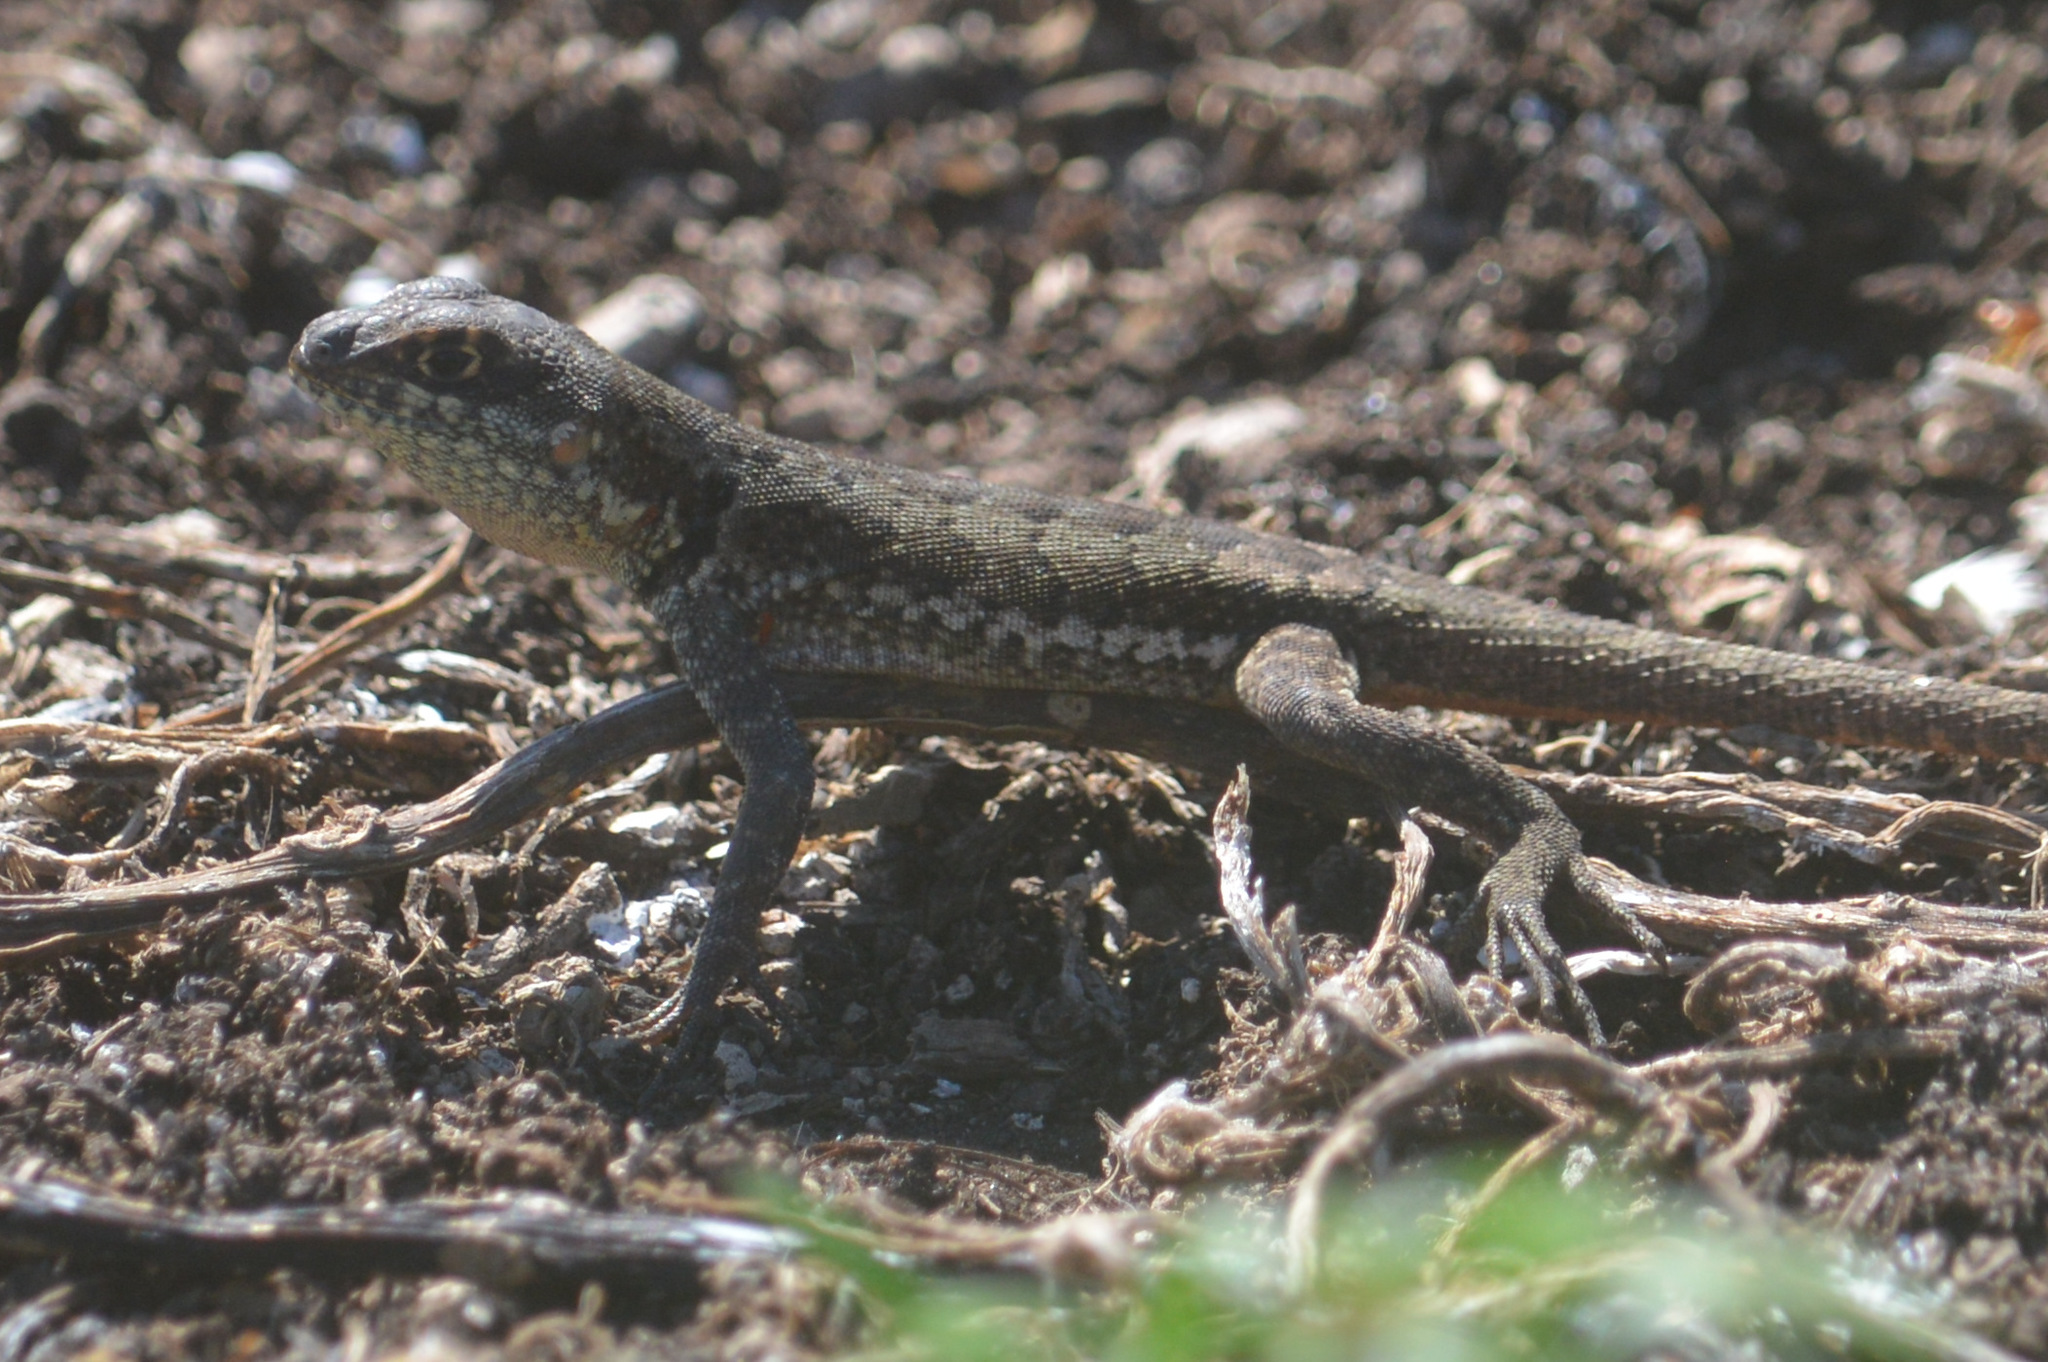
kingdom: Animalia
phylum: Chordata
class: Squamata
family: Tropiduridae
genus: Tropidurus
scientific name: Tropidurus torquatus
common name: Amazon lava lizard
